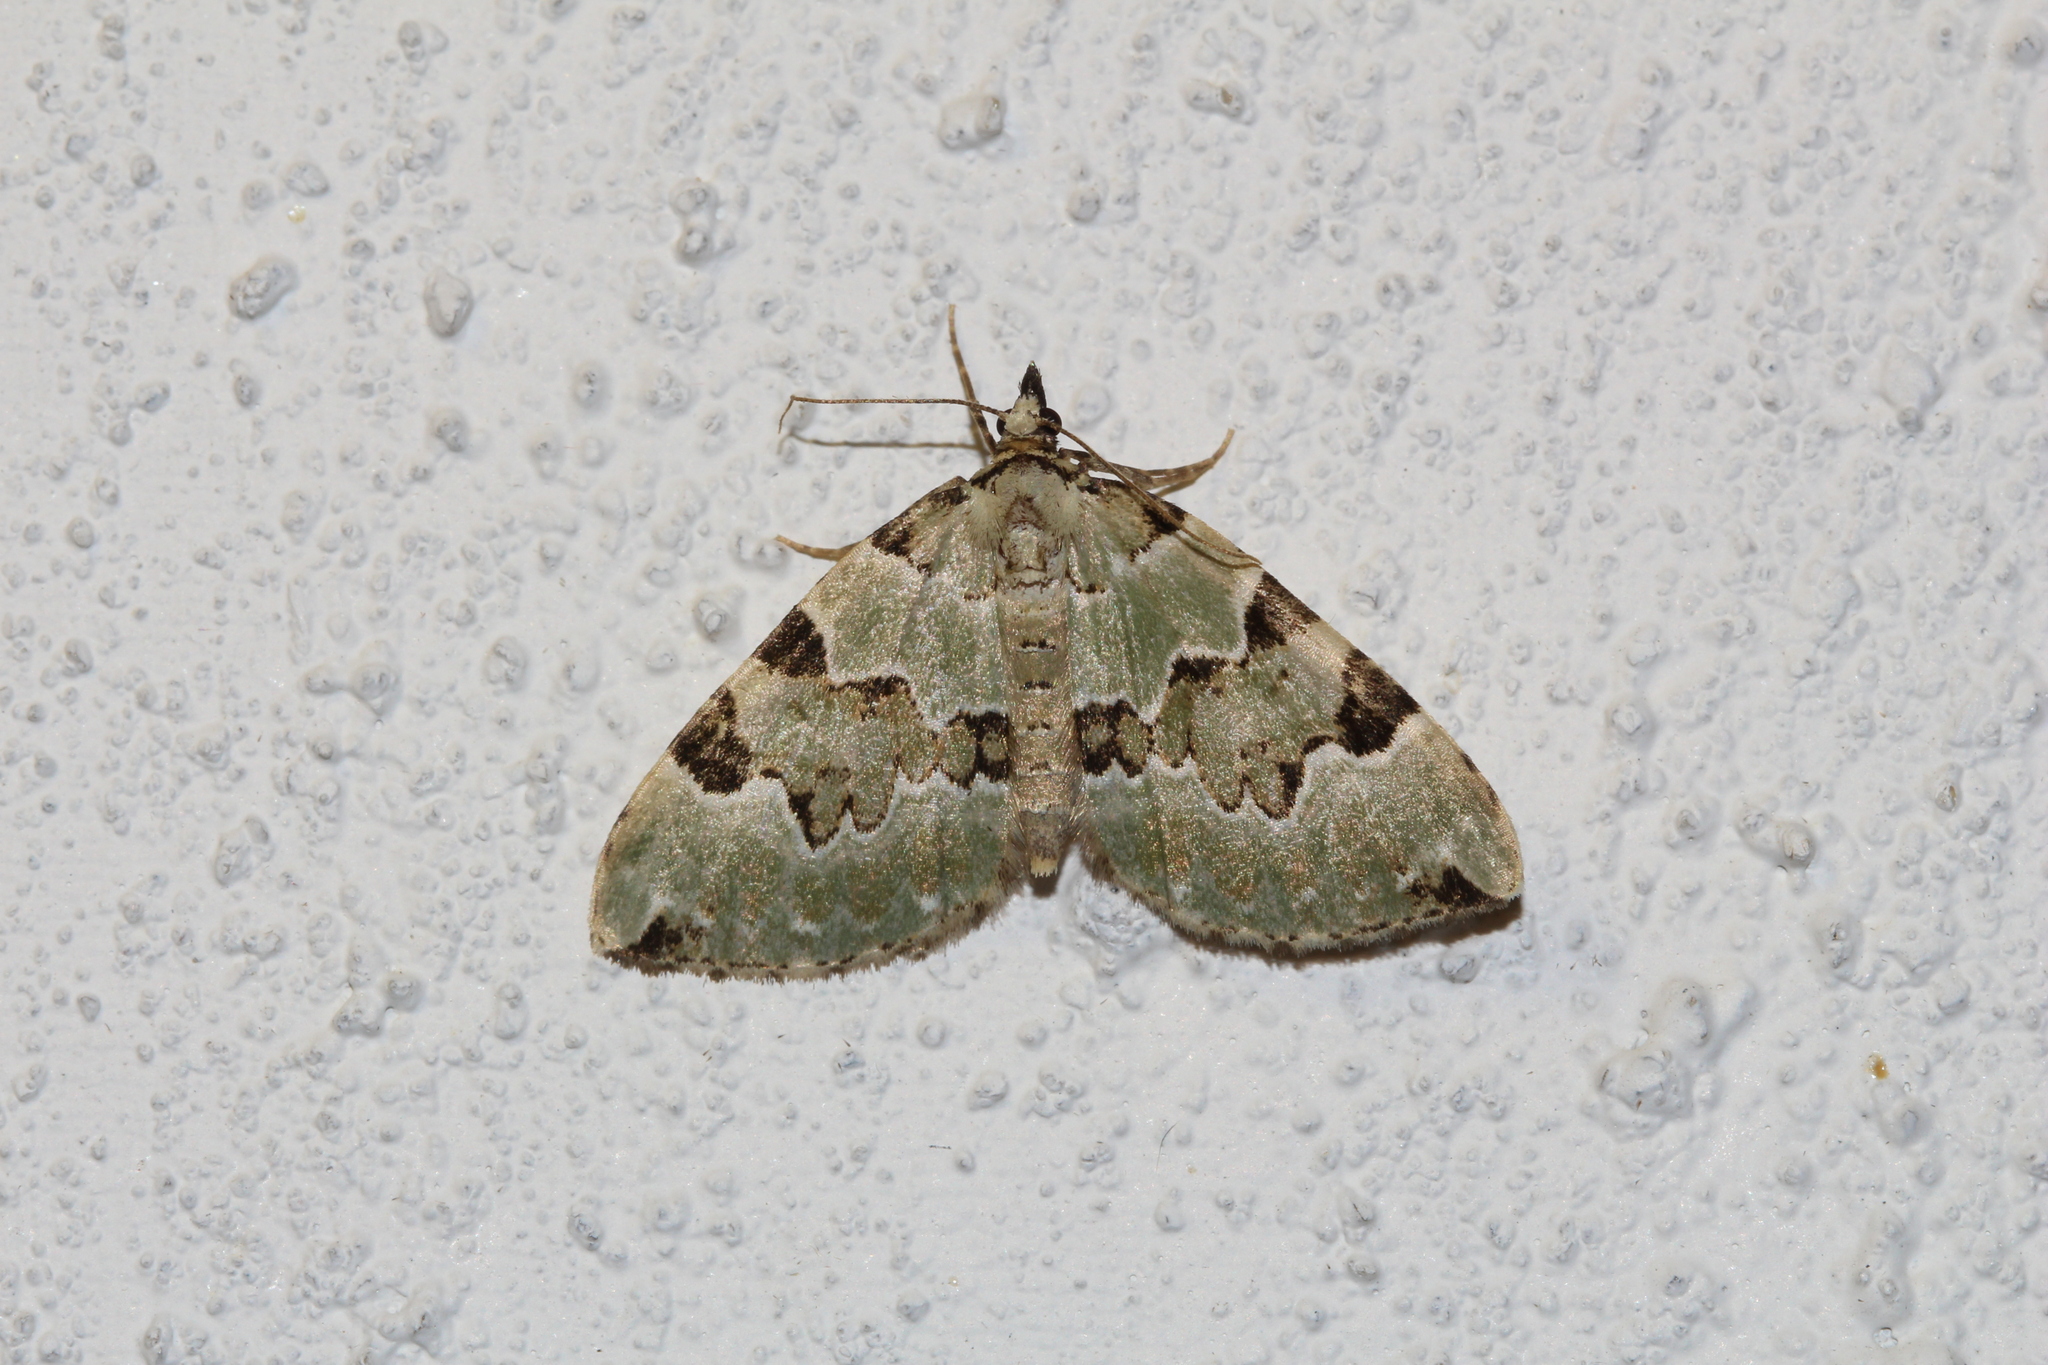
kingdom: Animalia
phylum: Arthropoda
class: Insecta
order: Lepidoptera
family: Geometridae
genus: Colostygia
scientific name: Colostygia pectinataria
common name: Green carpet
